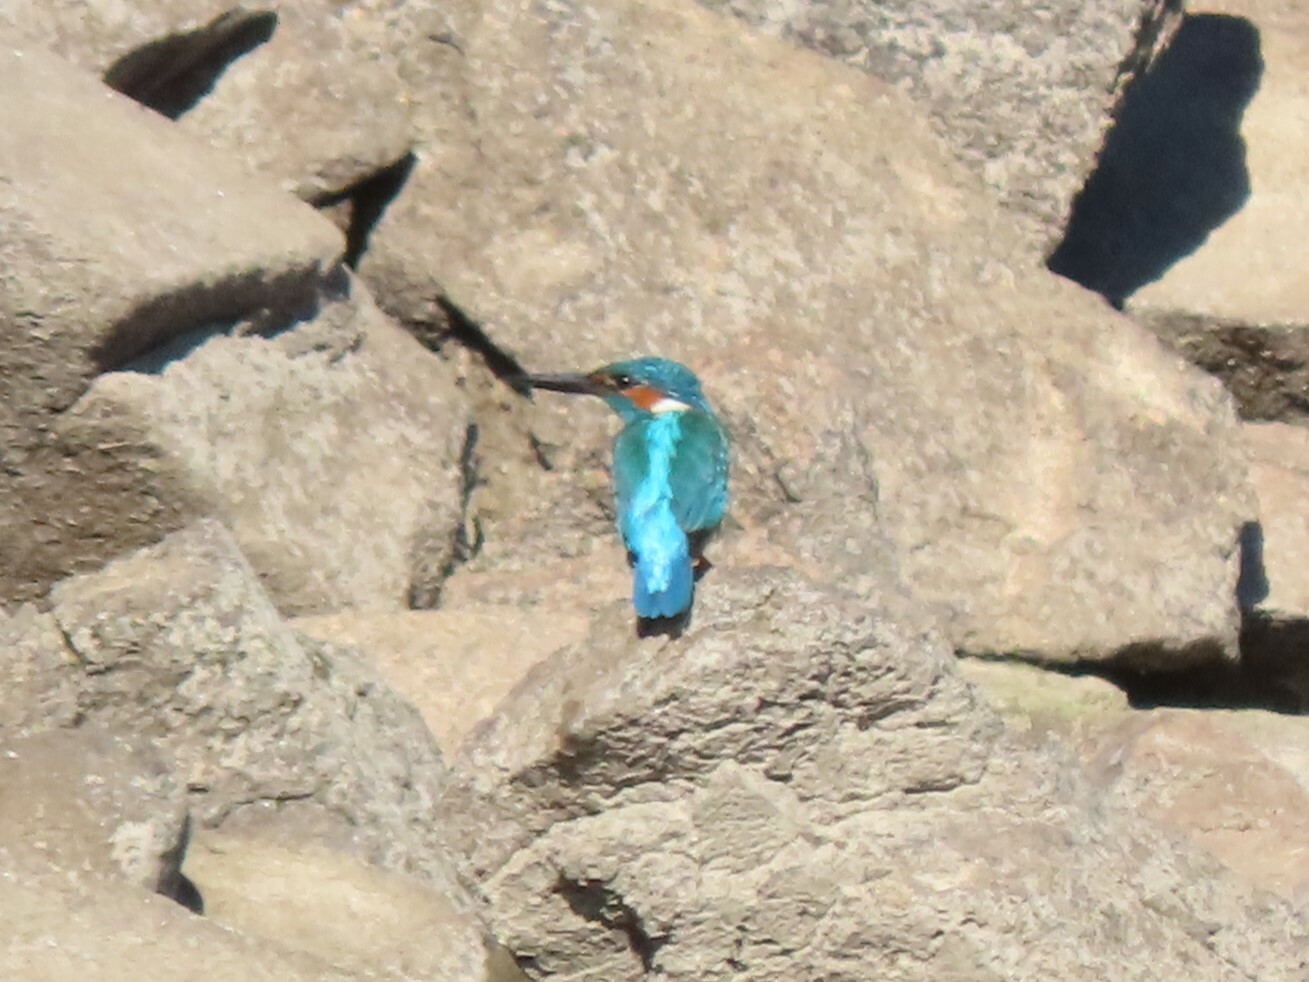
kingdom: Animalia
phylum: Chordata
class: Aves
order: Coraciiformes
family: Alcedinidae
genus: Alcedo
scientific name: Alcedo atthis
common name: Common kingfisher
